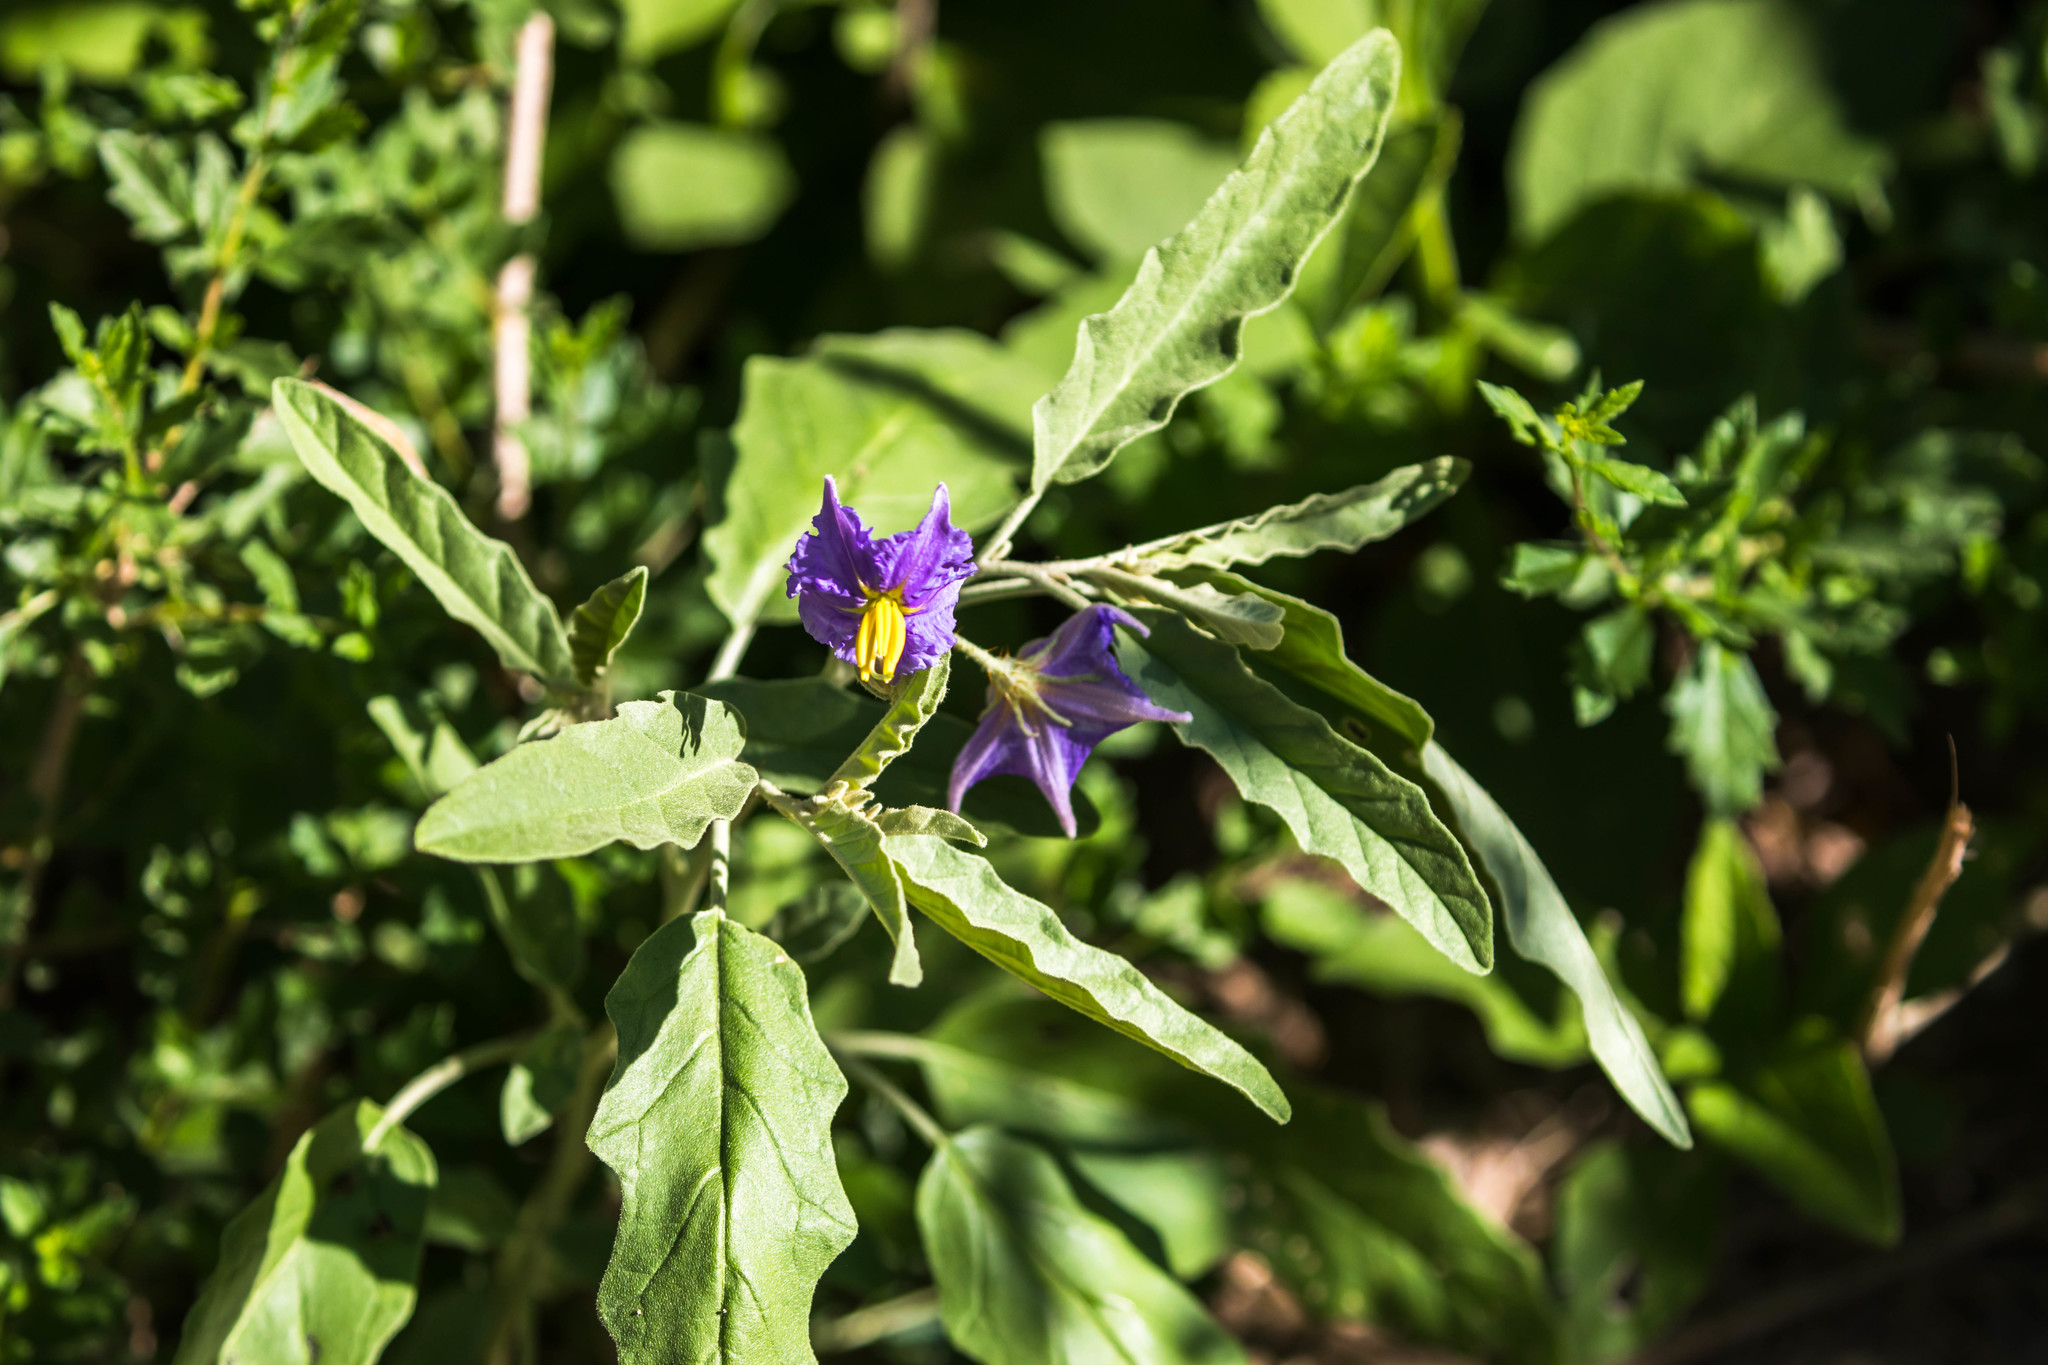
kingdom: Plantae
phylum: Tracheophyta
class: Magnoliopsida
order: Solanales
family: Solanaceae
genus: Solanum
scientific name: Solanum elaeagnifolium
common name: Silverleaf nightshade
